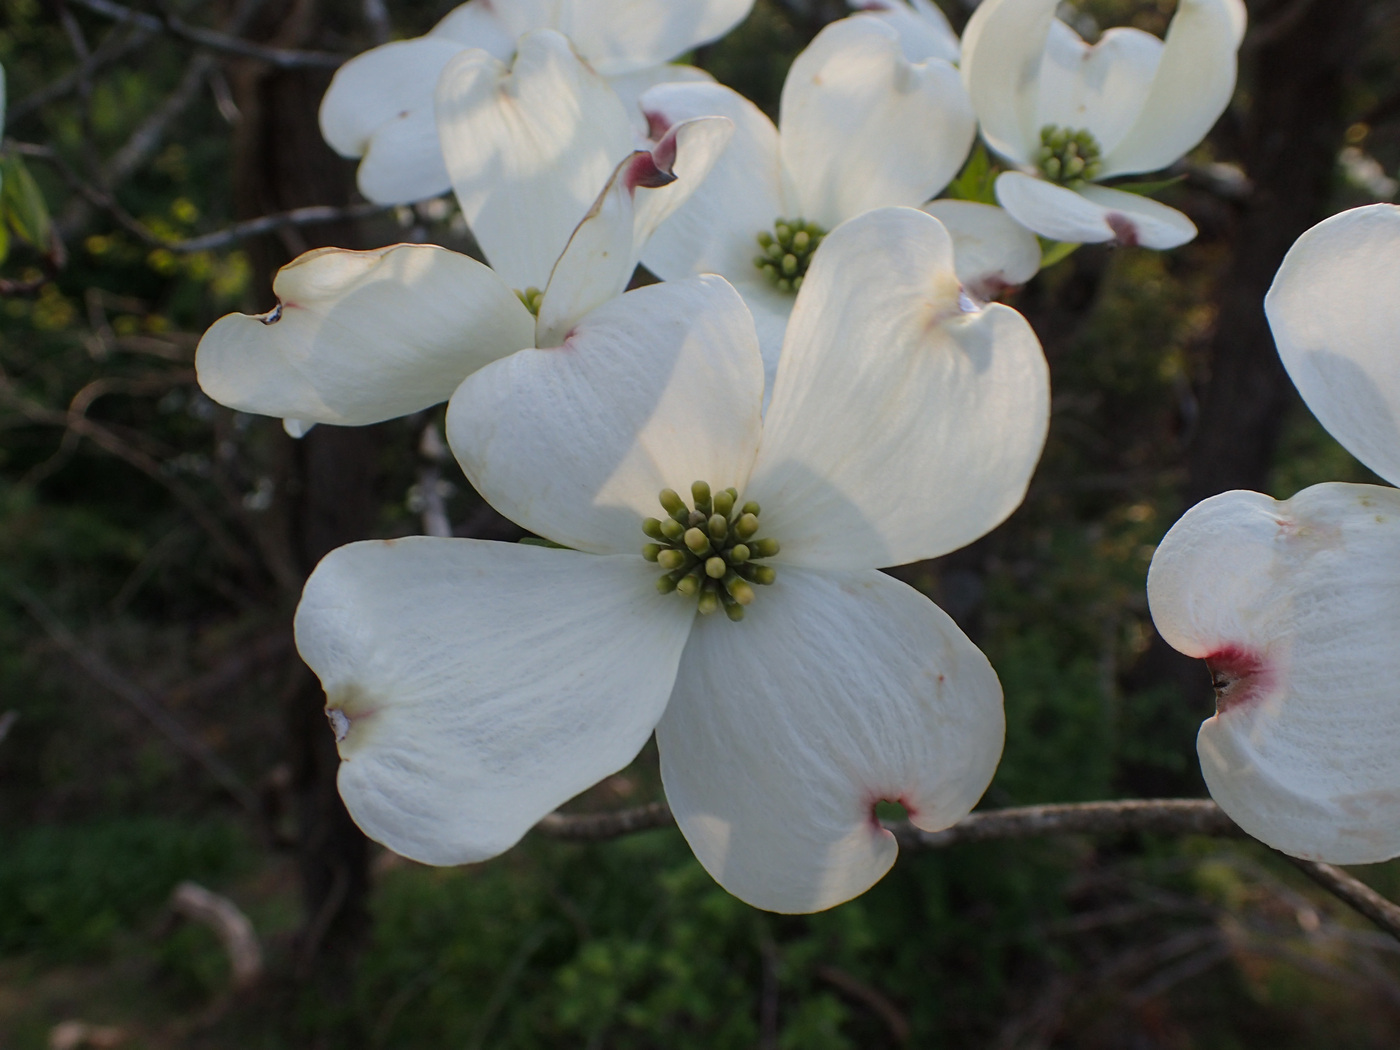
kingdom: Plantae
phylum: Tracheophyta
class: Magnoliopsida
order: Cornales
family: Cornaceae
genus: Cornus
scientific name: Cornus florida
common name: Flowering dogwood
